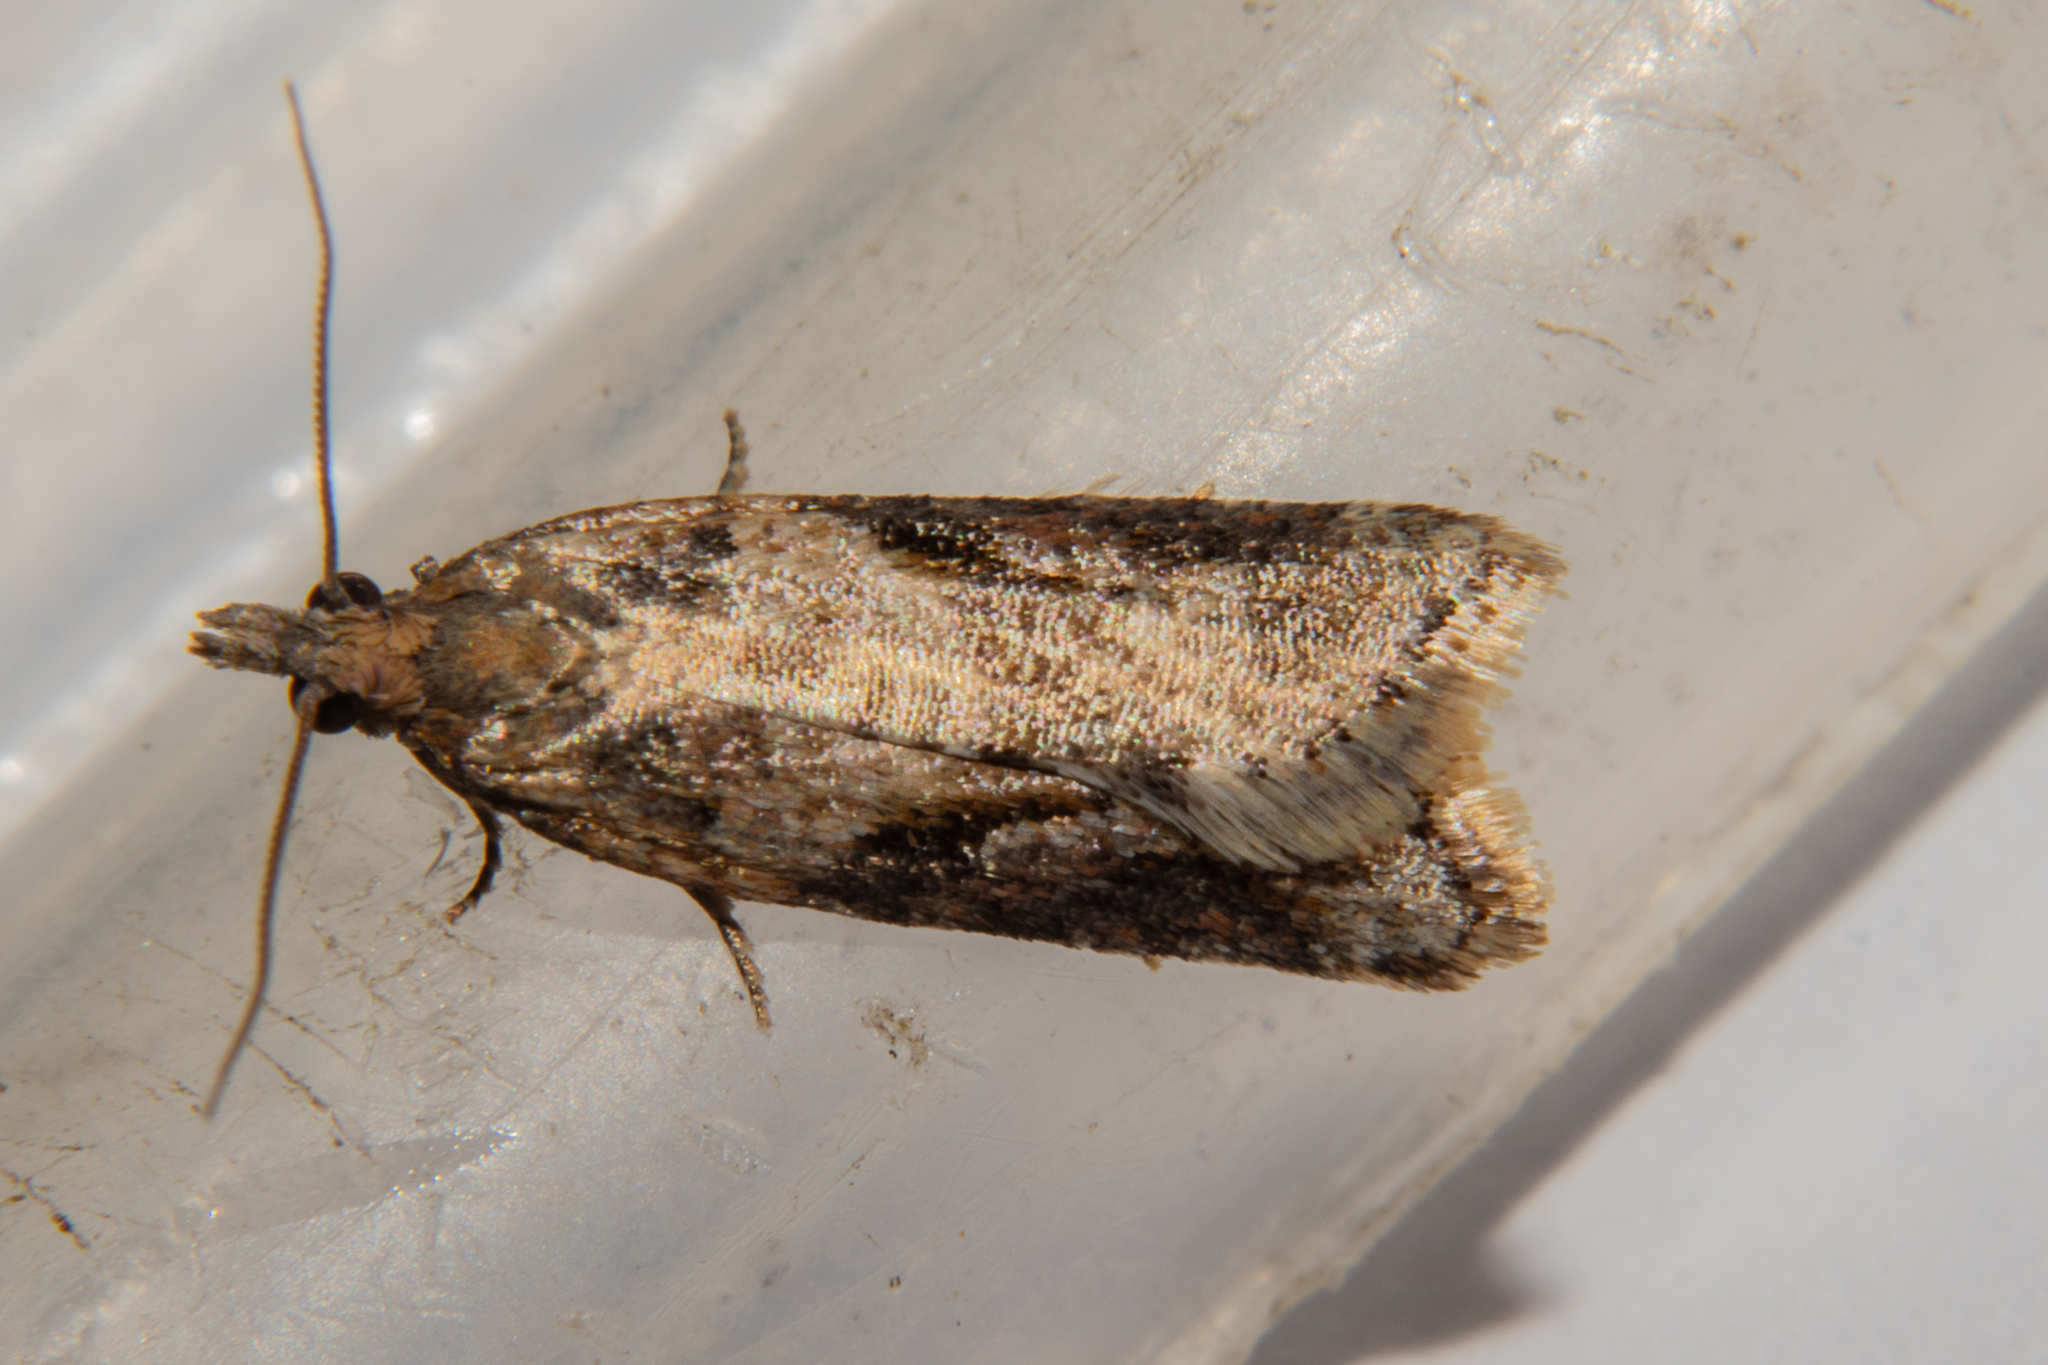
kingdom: Animalia
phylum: Arthropoda
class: Insecta
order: Lepidoptera
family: Tortricidae
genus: Capua
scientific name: Capua semiferana
